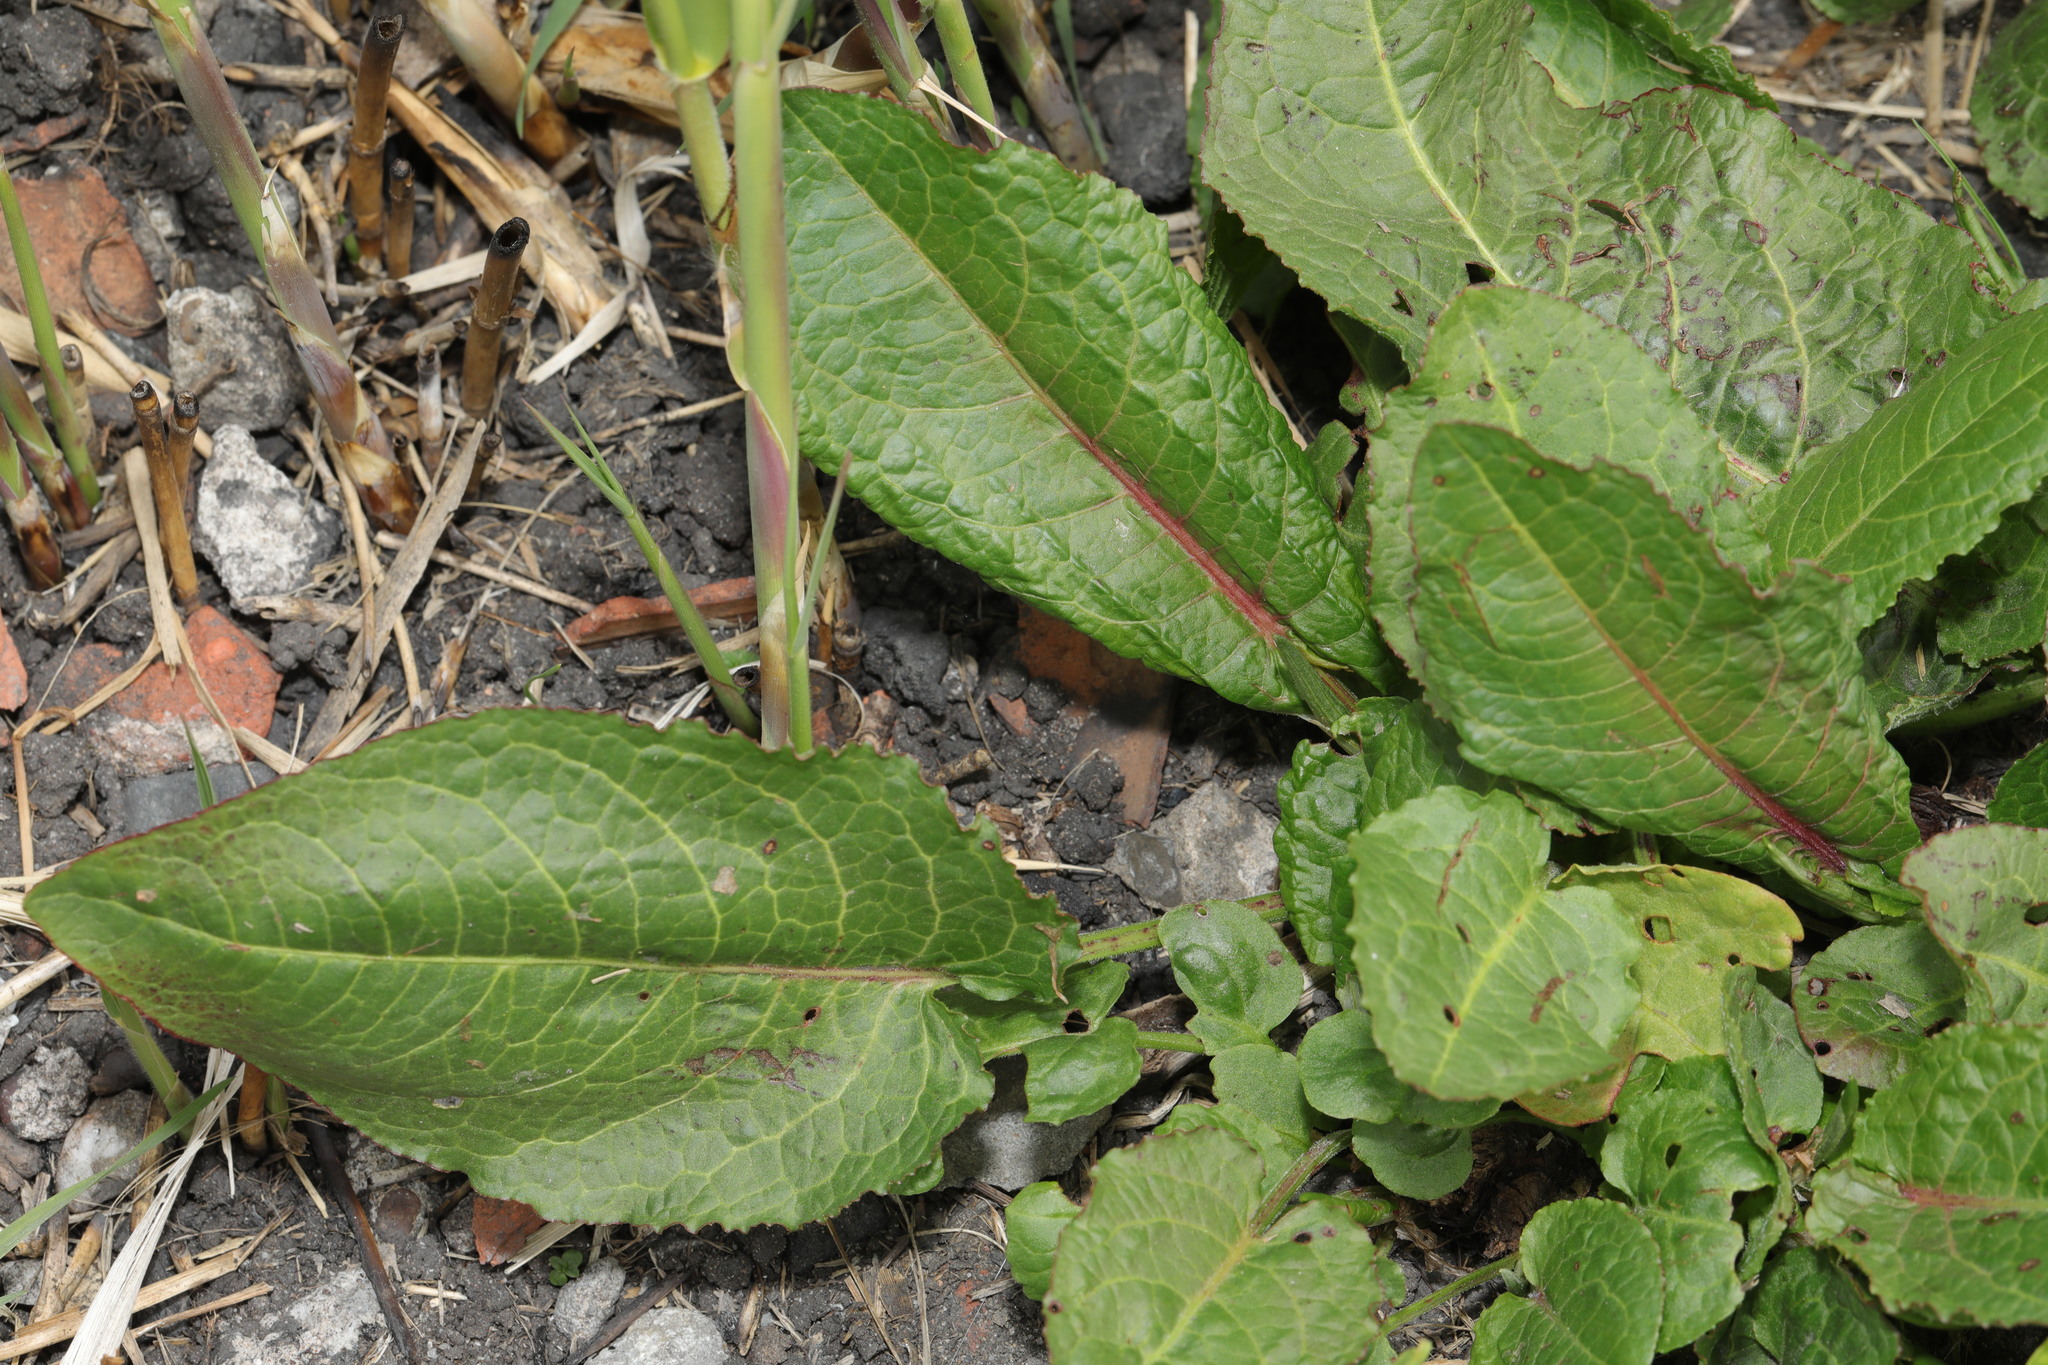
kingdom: Plantae
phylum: Tracheophyta
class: Magnoliopsida
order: Caryophyllales
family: Polygonaceae
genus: Rumex
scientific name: Rumex obtusifolius
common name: Bitter dock
